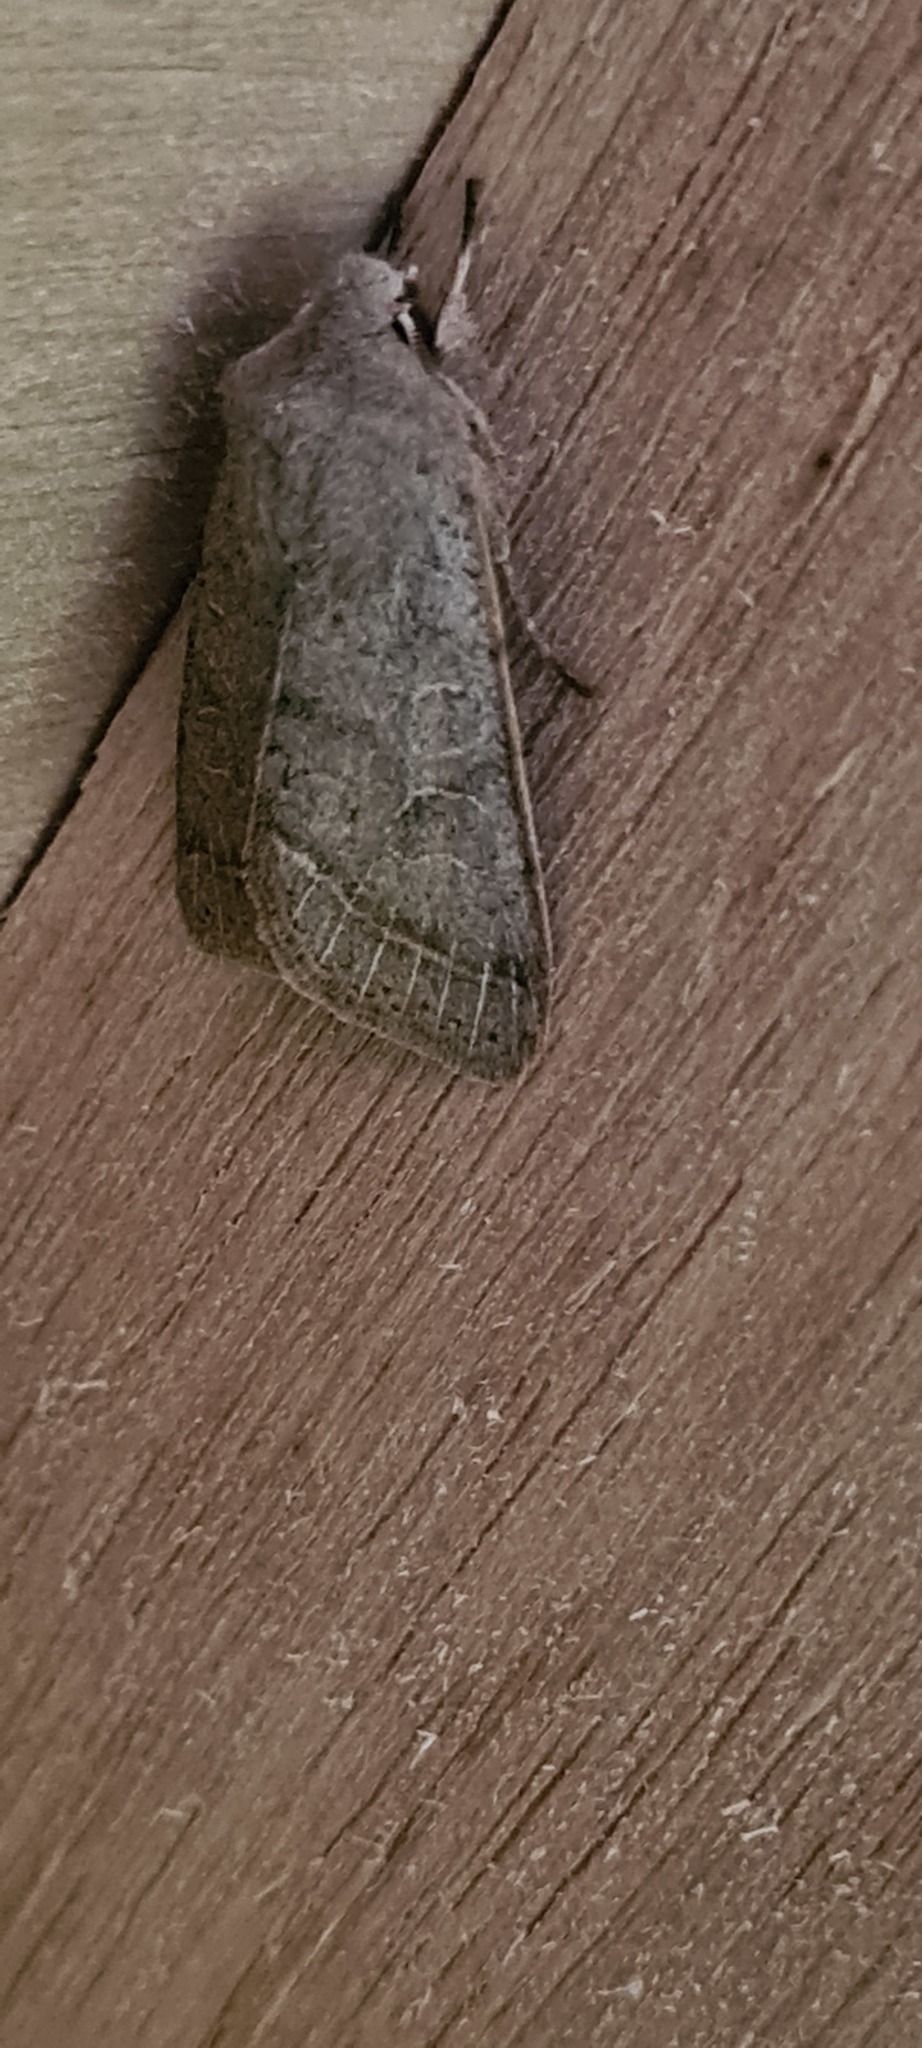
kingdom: Animalia
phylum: Arthropoda
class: Insecta
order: Lepidoptera
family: Noctuidae
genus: Orthosia
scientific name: Orthosia cerasi
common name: Common quaker
